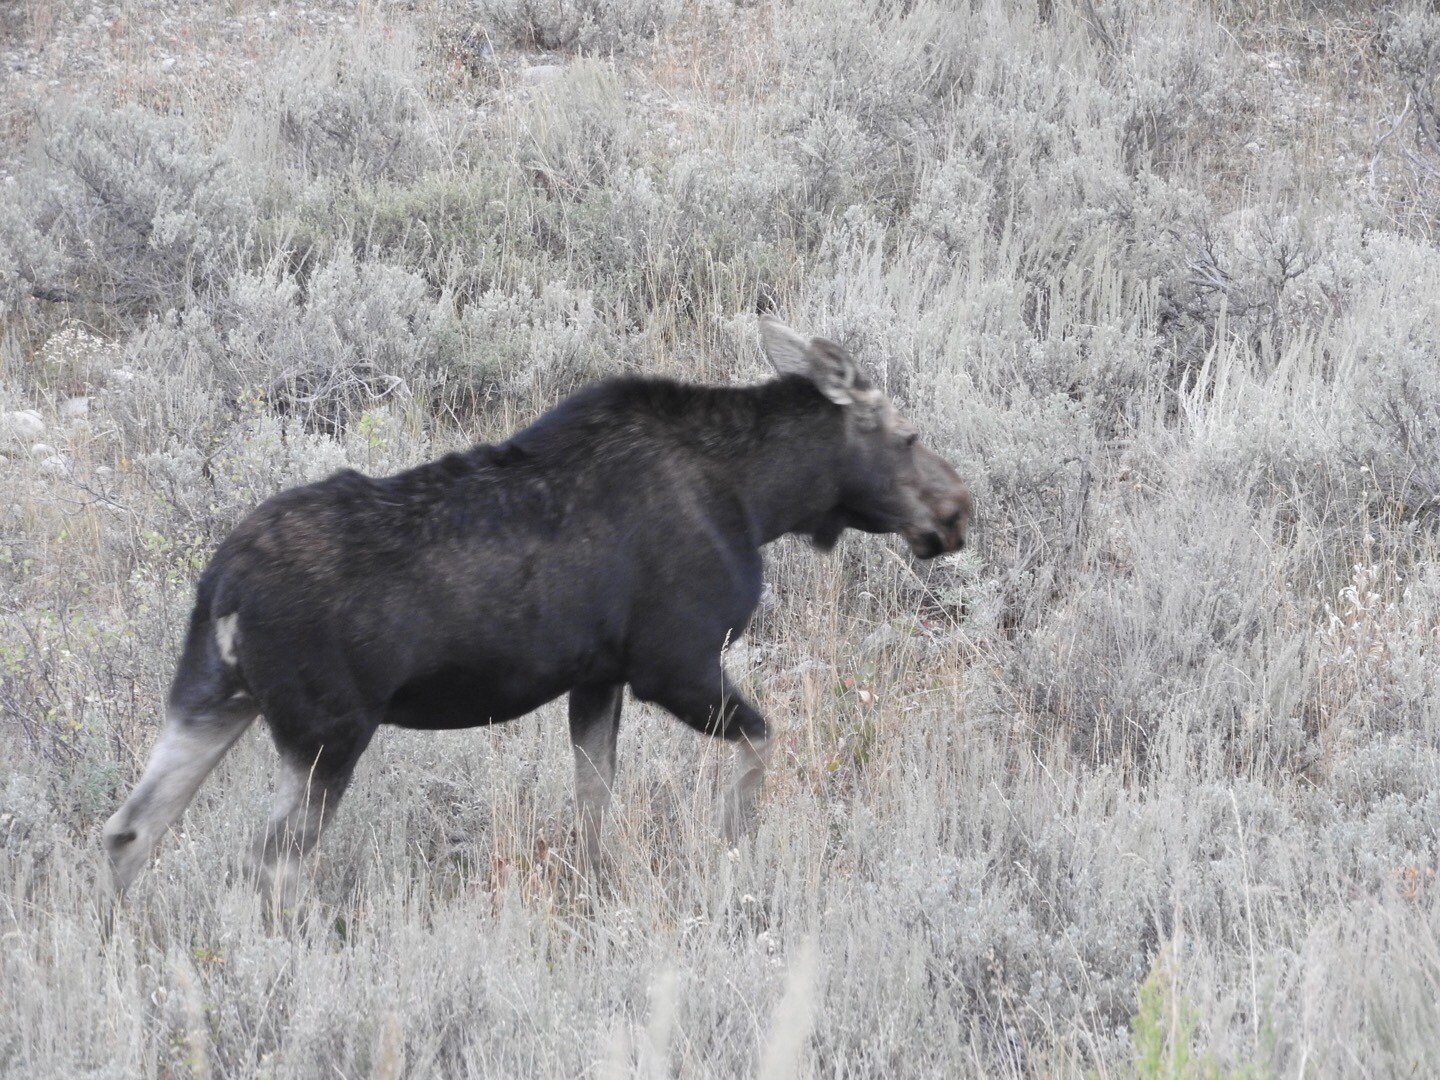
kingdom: Animalia
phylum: Chordata
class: Mammalia
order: Artiodactyla
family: Cervidae
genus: Alces
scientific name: Alces alces
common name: Moose
